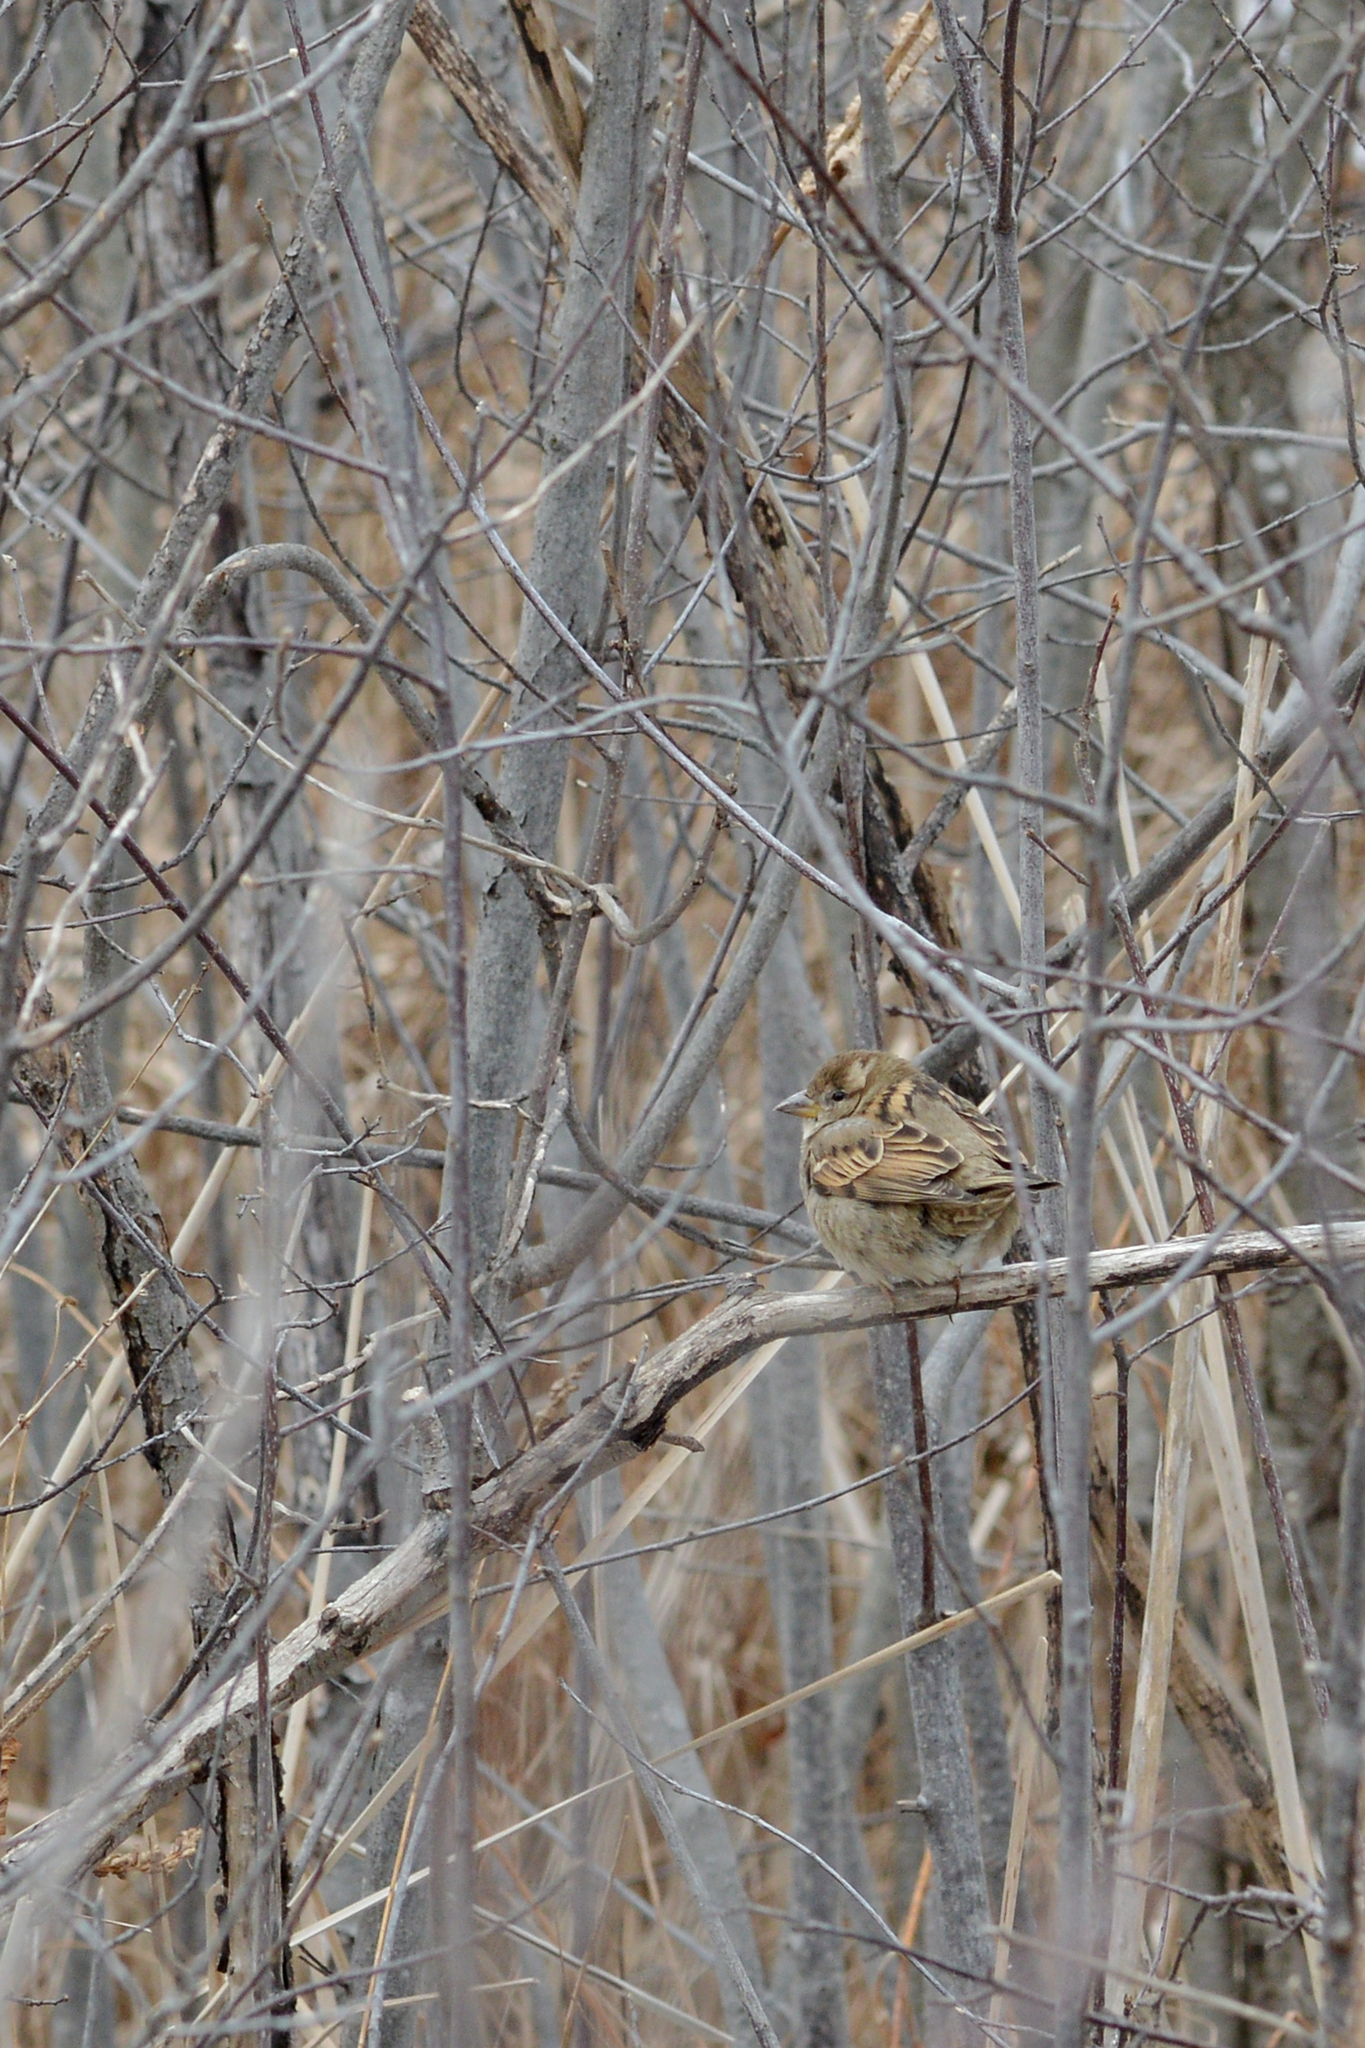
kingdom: Animalia
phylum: Chordata
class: Aves
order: Passeriformes
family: Passeridae
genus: Passer
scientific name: Passer domesticus
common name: House sparrow
